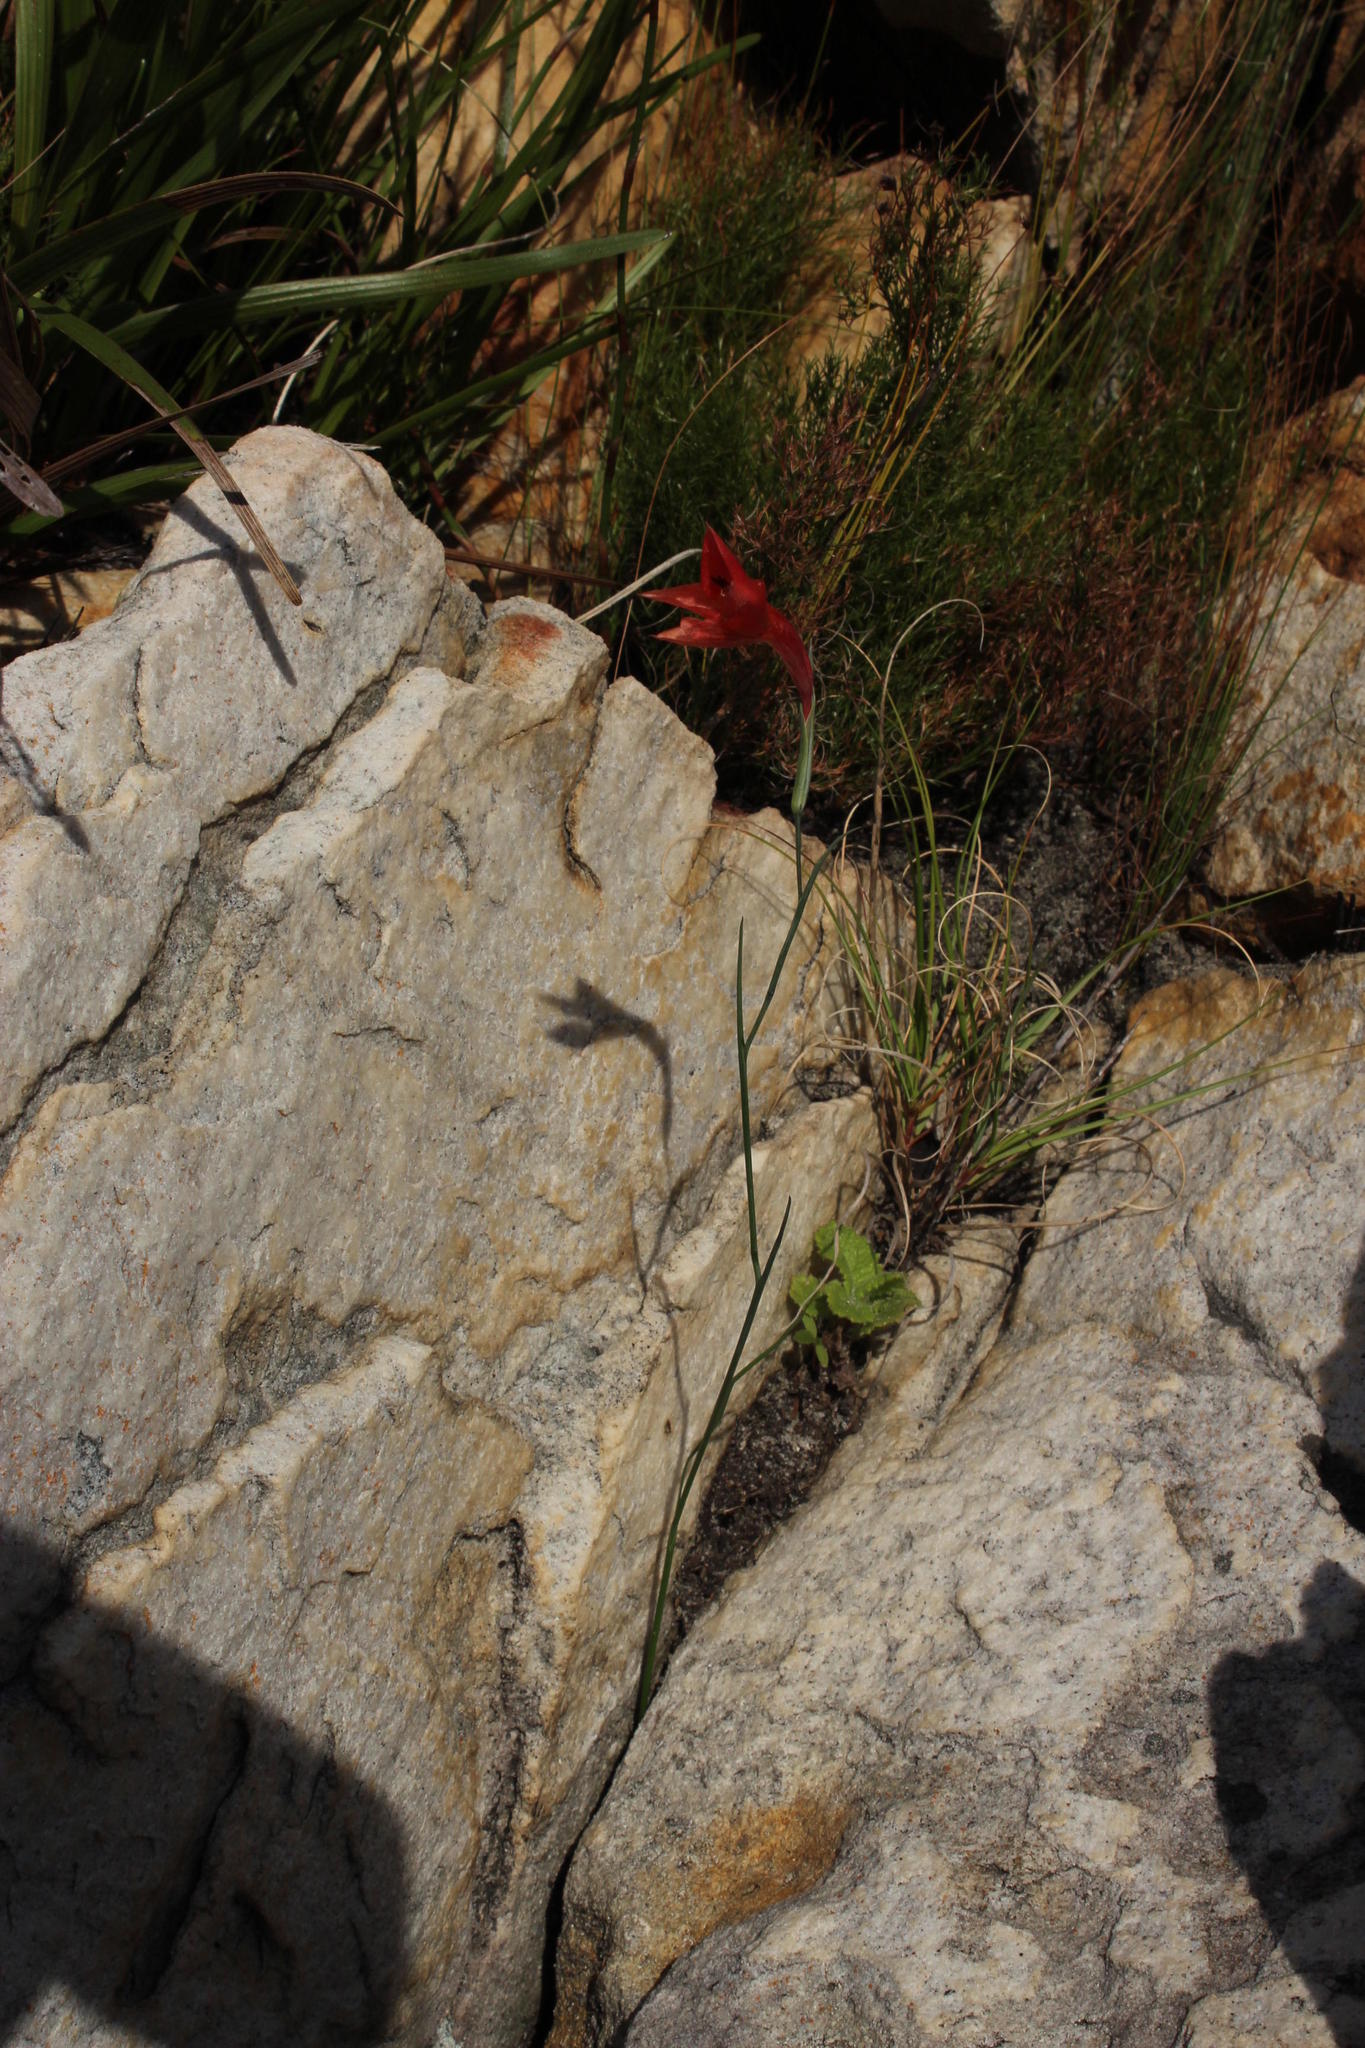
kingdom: Plantae
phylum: Tracheophyta
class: Liliopsida
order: Asparagales
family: Iridaceae
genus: Gladiolus
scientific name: Gladiolus priorii
